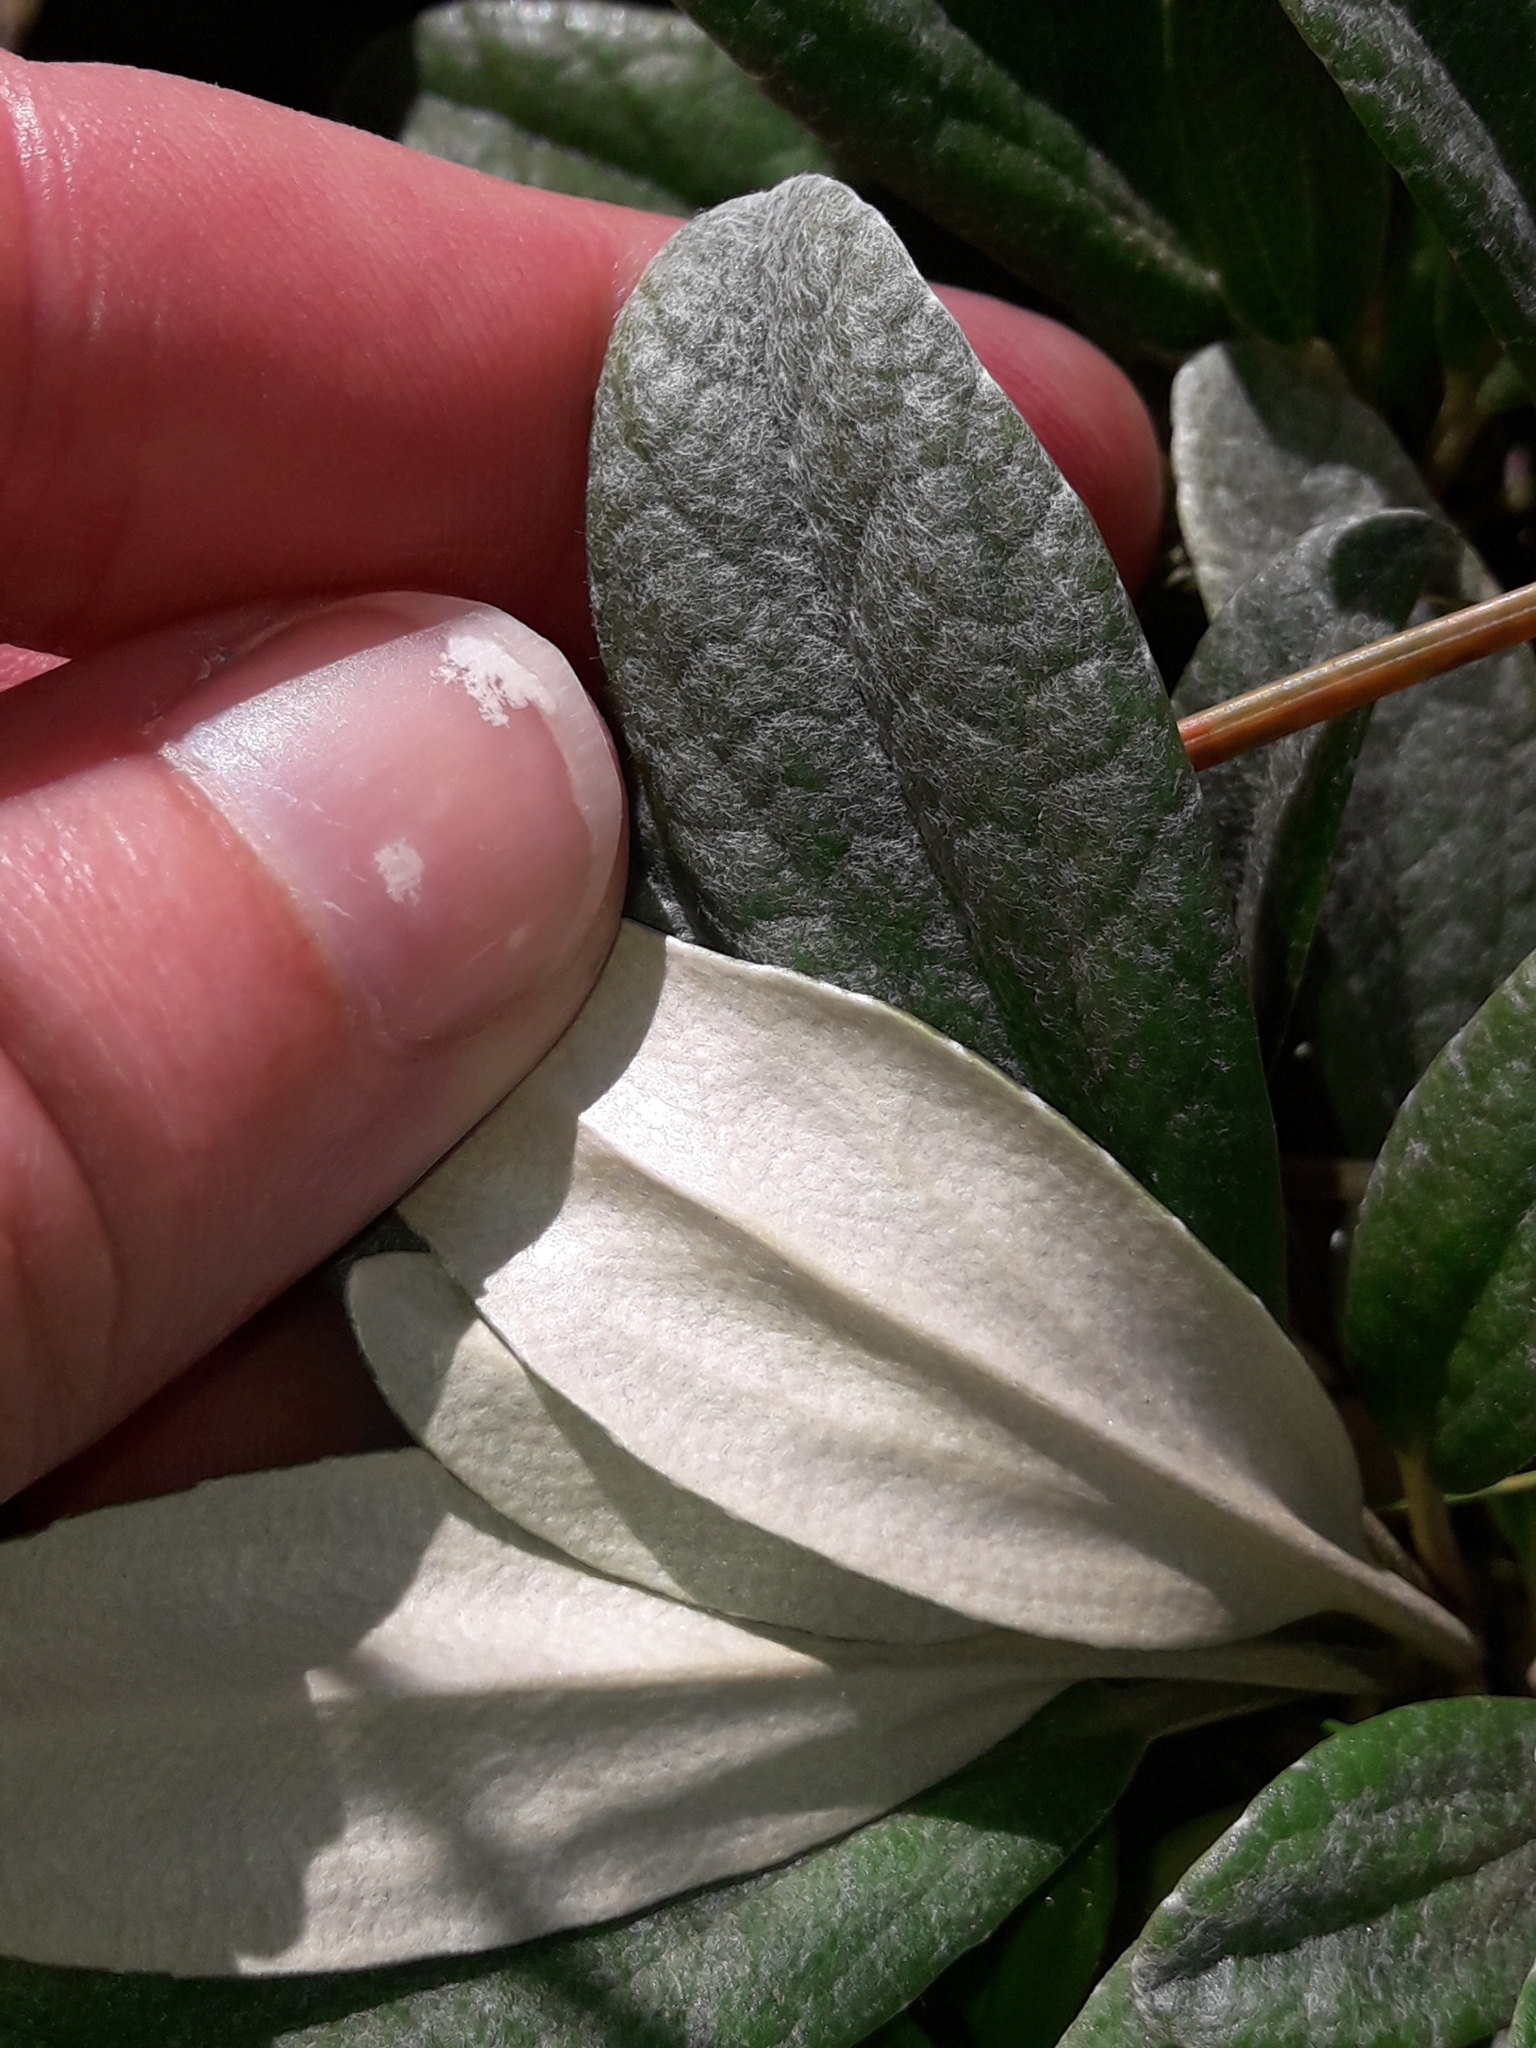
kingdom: Plantae
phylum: Tracheophyta
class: Magnoliopsida
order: Asterales
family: Asteraceae
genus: Brachyglottis
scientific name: Brachyglottis revoluta
